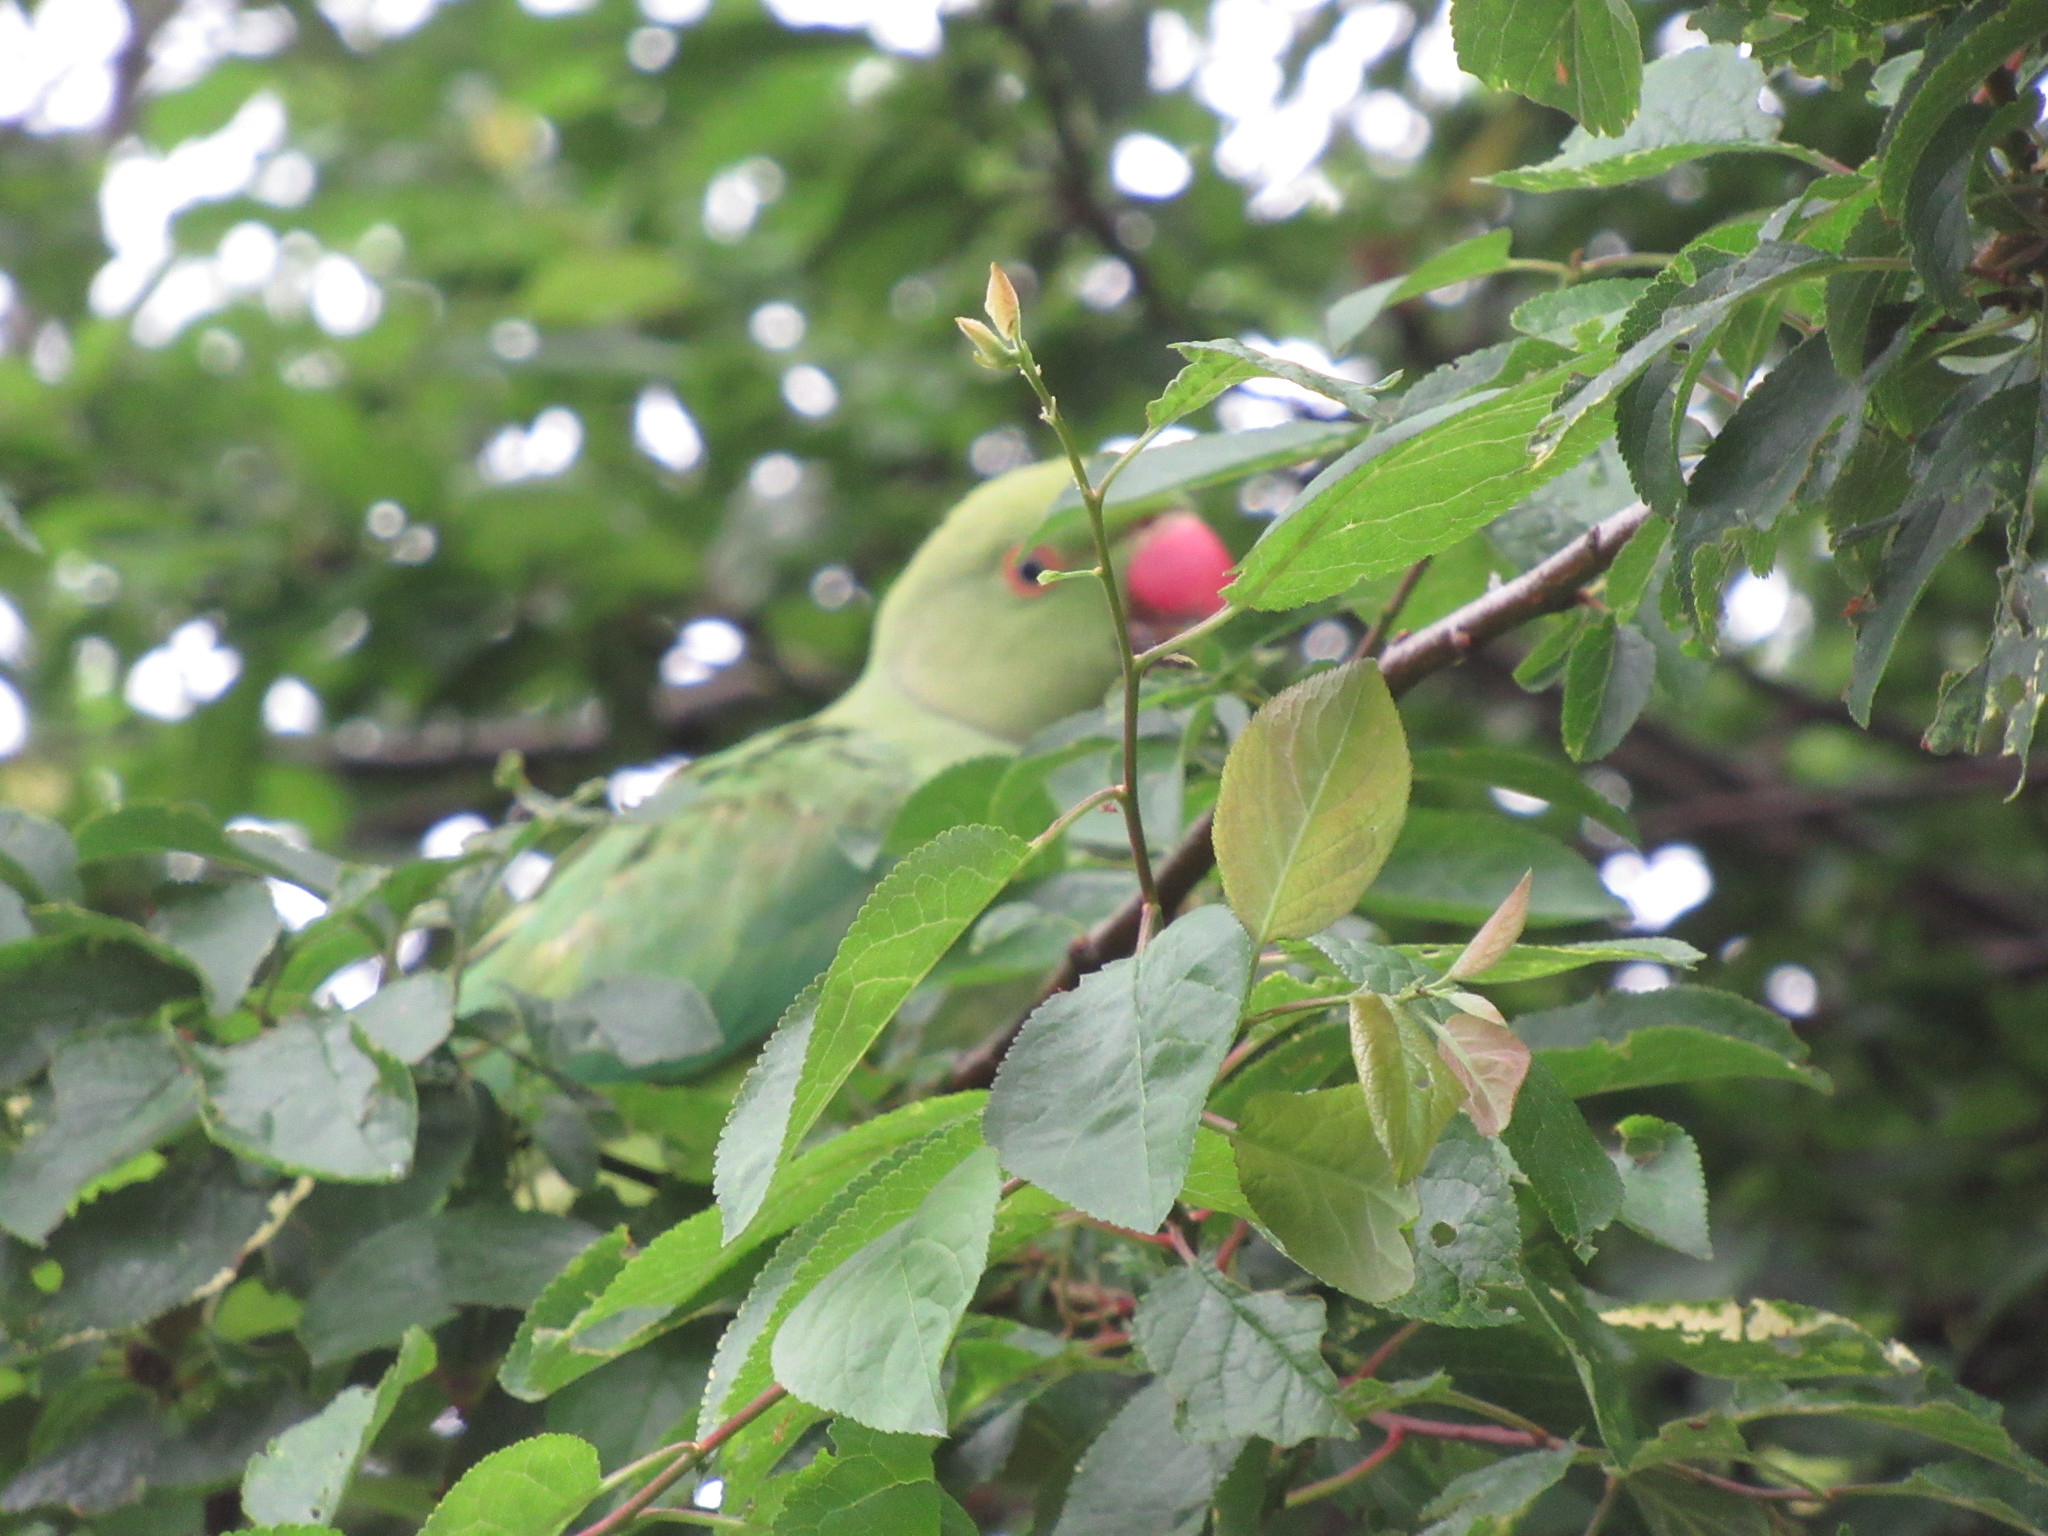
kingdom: Animalia
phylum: Chordata
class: Aves
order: Psittaciformes
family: Psittacidae
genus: Psittacula
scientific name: Psittacula krameri
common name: Rose-ringed parakeet
